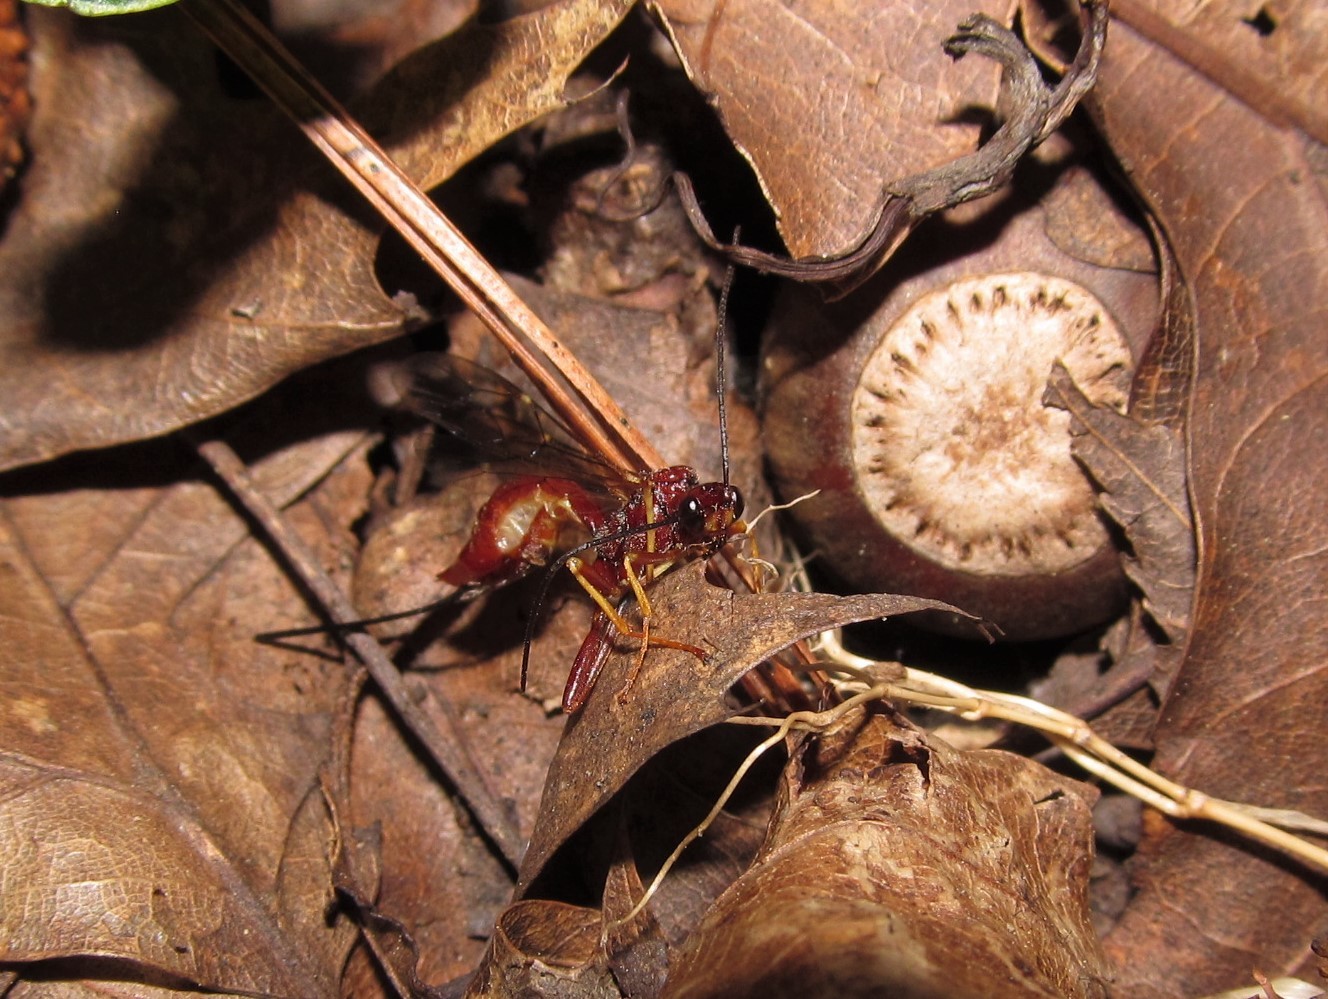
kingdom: Animalia
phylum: Arthropoda
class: Insecta
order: Hymenoptera
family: Ichneumonidae
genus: Coleocentrus
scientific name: Coleocentrus rufus
